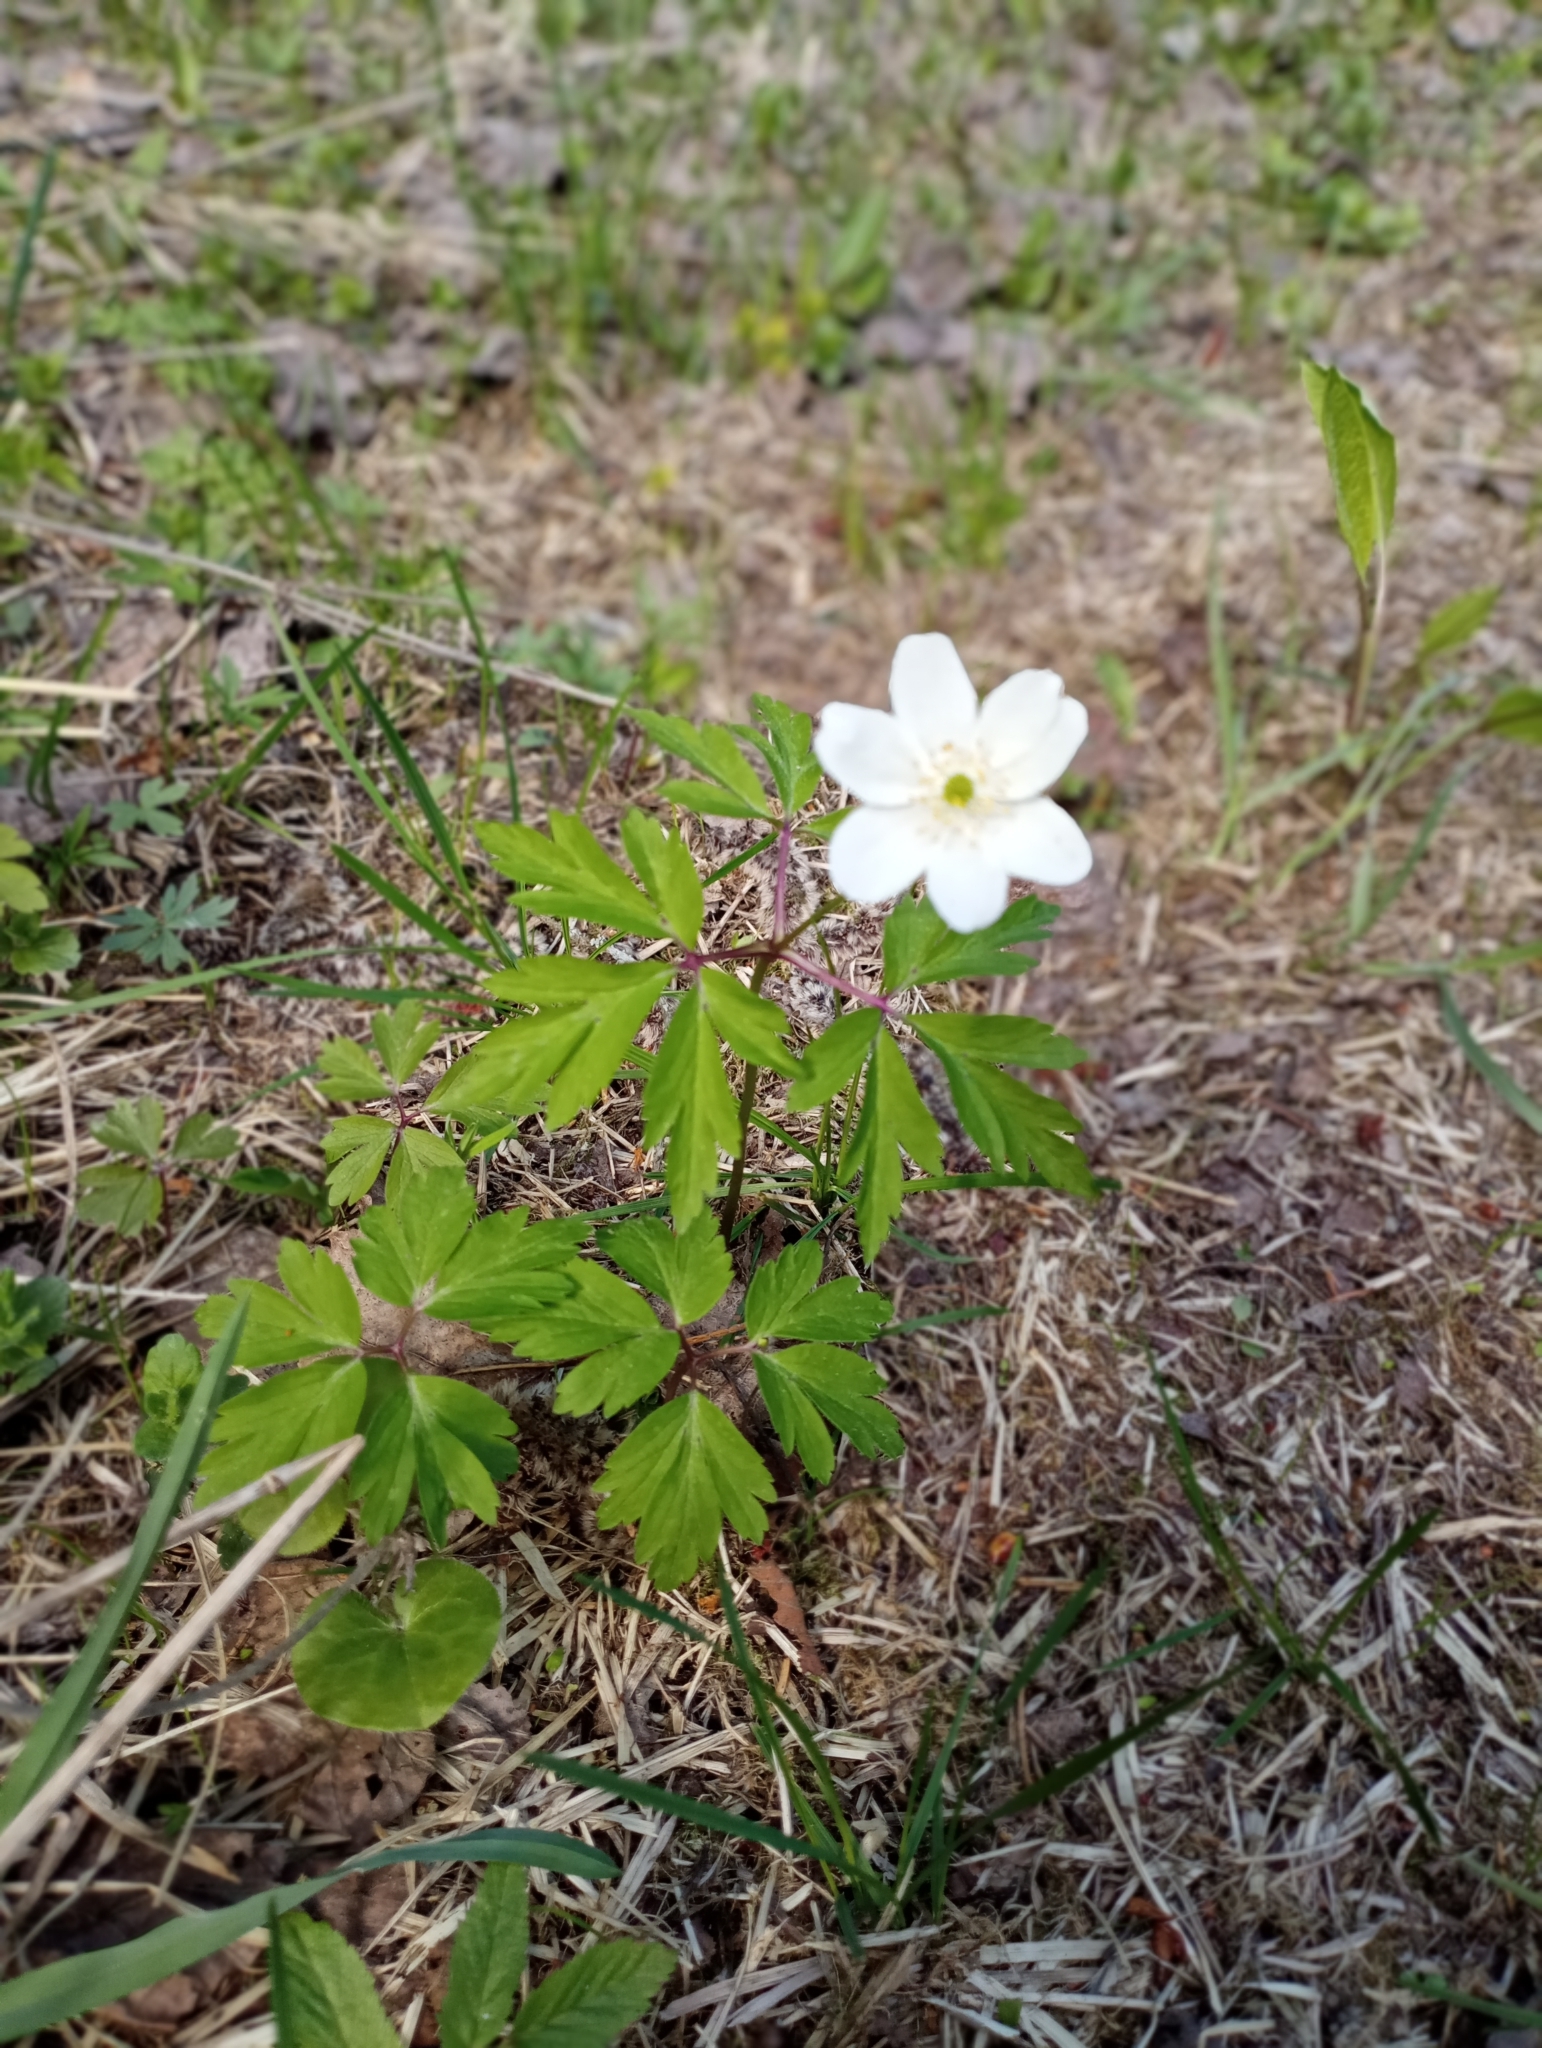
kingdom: Plantae
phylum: Tracheophyta
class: Magnoliopsida
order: Ranunculales
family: Ranunculaceae
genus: Anemone
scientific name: Anemone nemorosa
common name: Wood anemone
